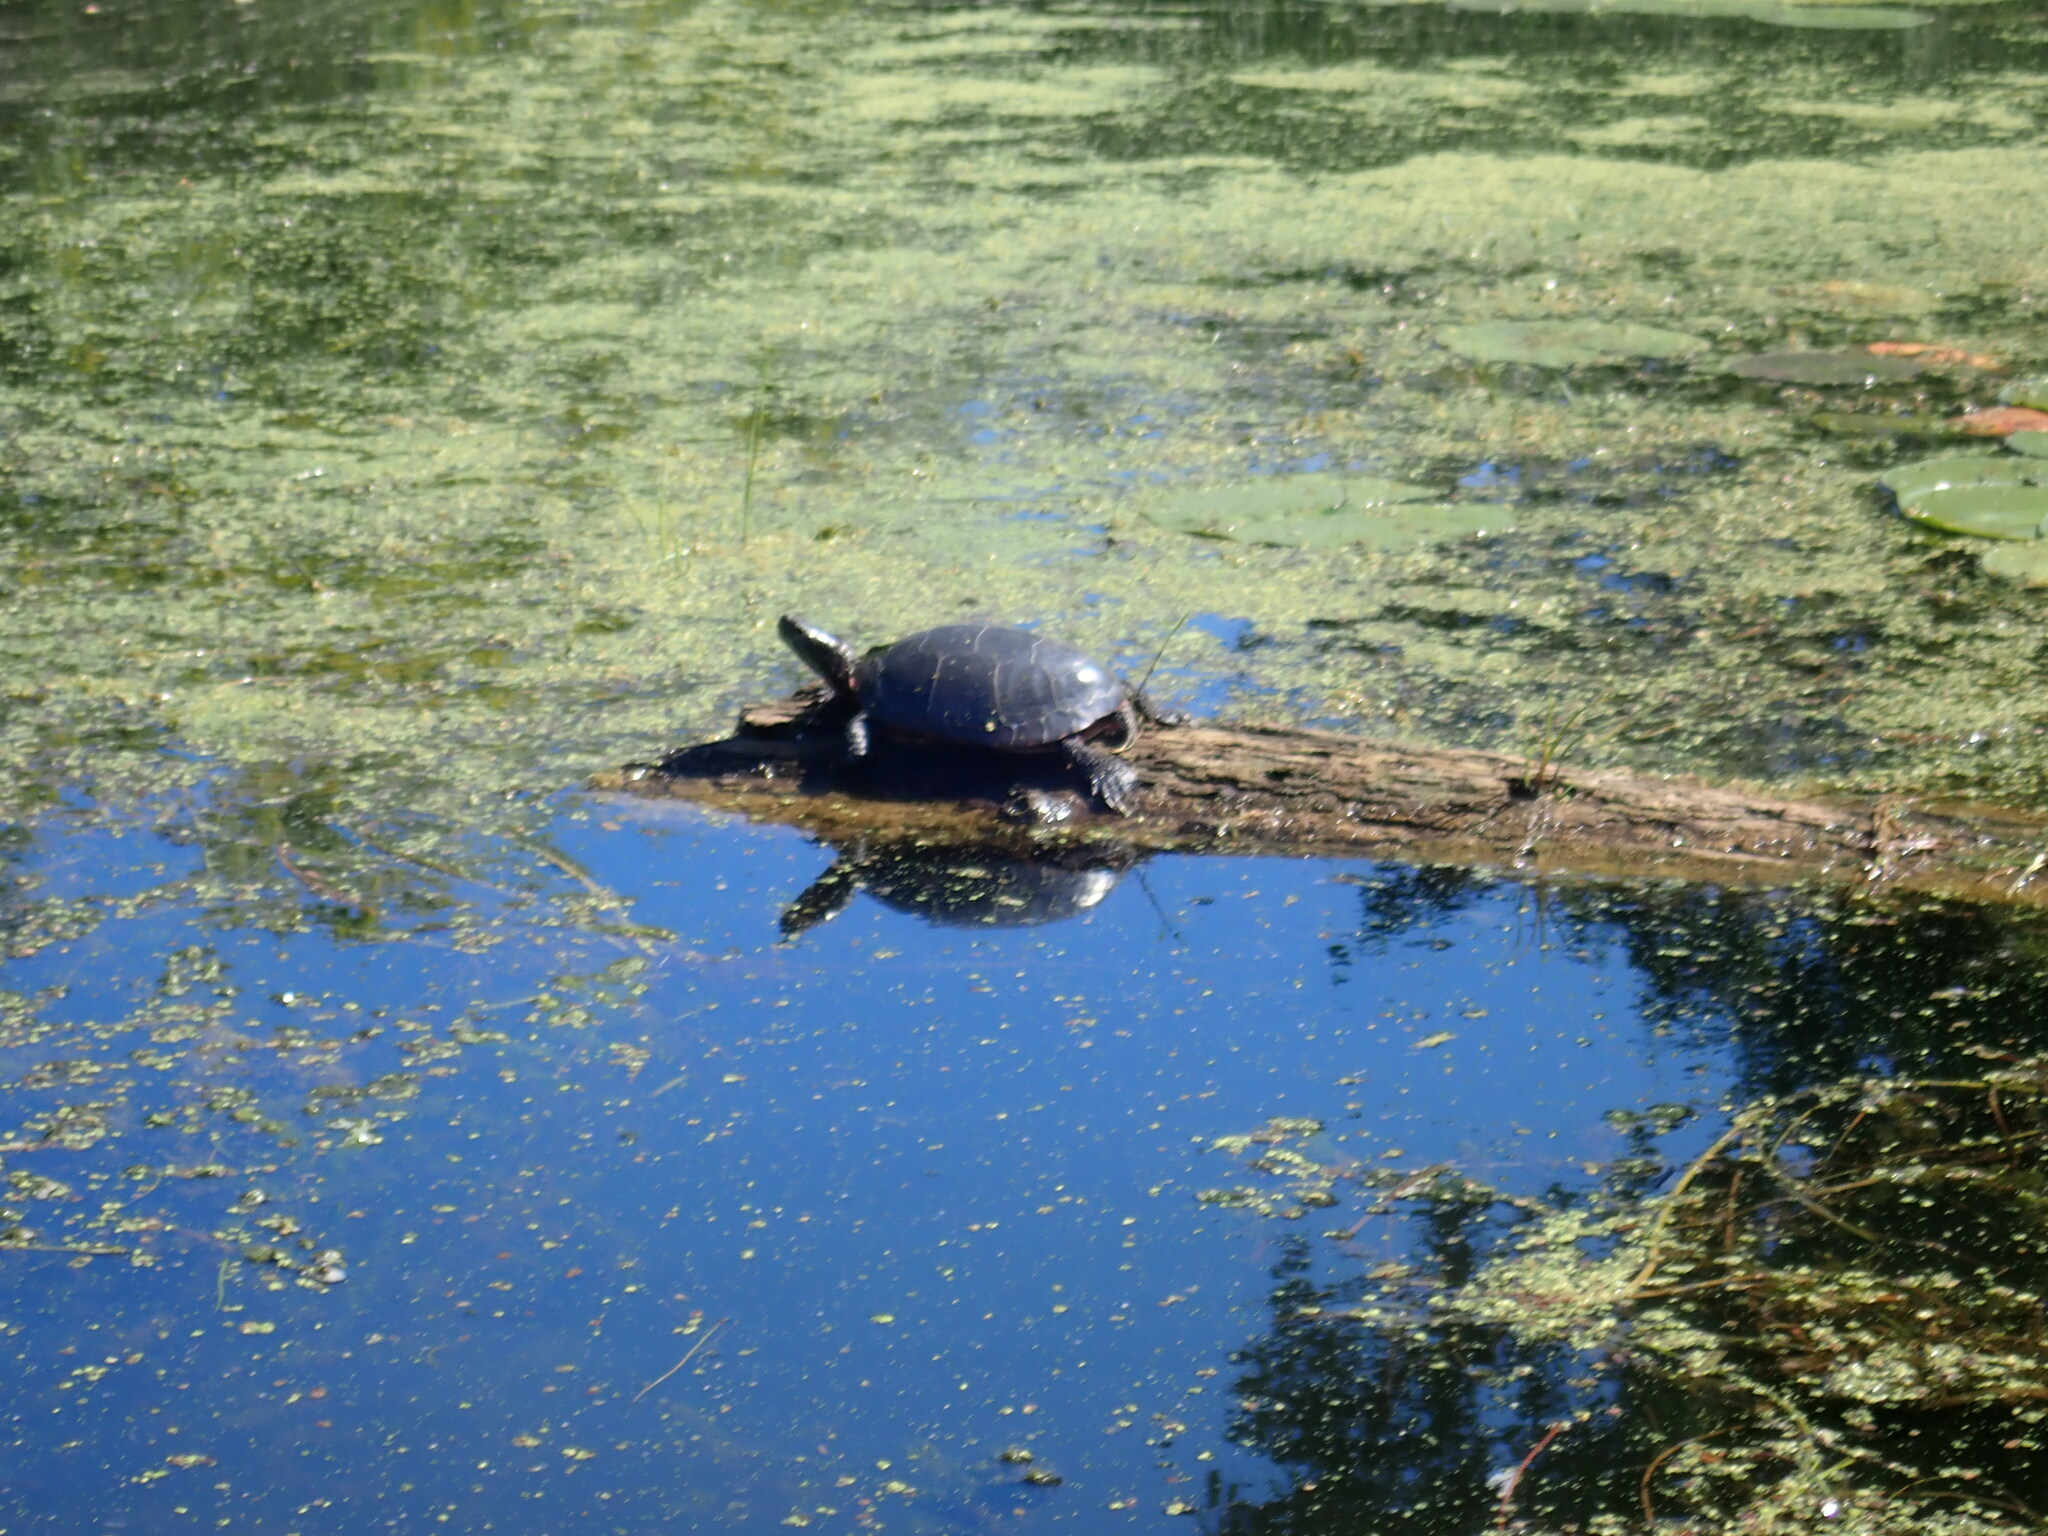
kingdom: Animalia
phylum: Chordata
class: Testudines
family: Emydidae
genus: Chrysemys
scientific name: Chrysemys picta
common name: Painted turtle
